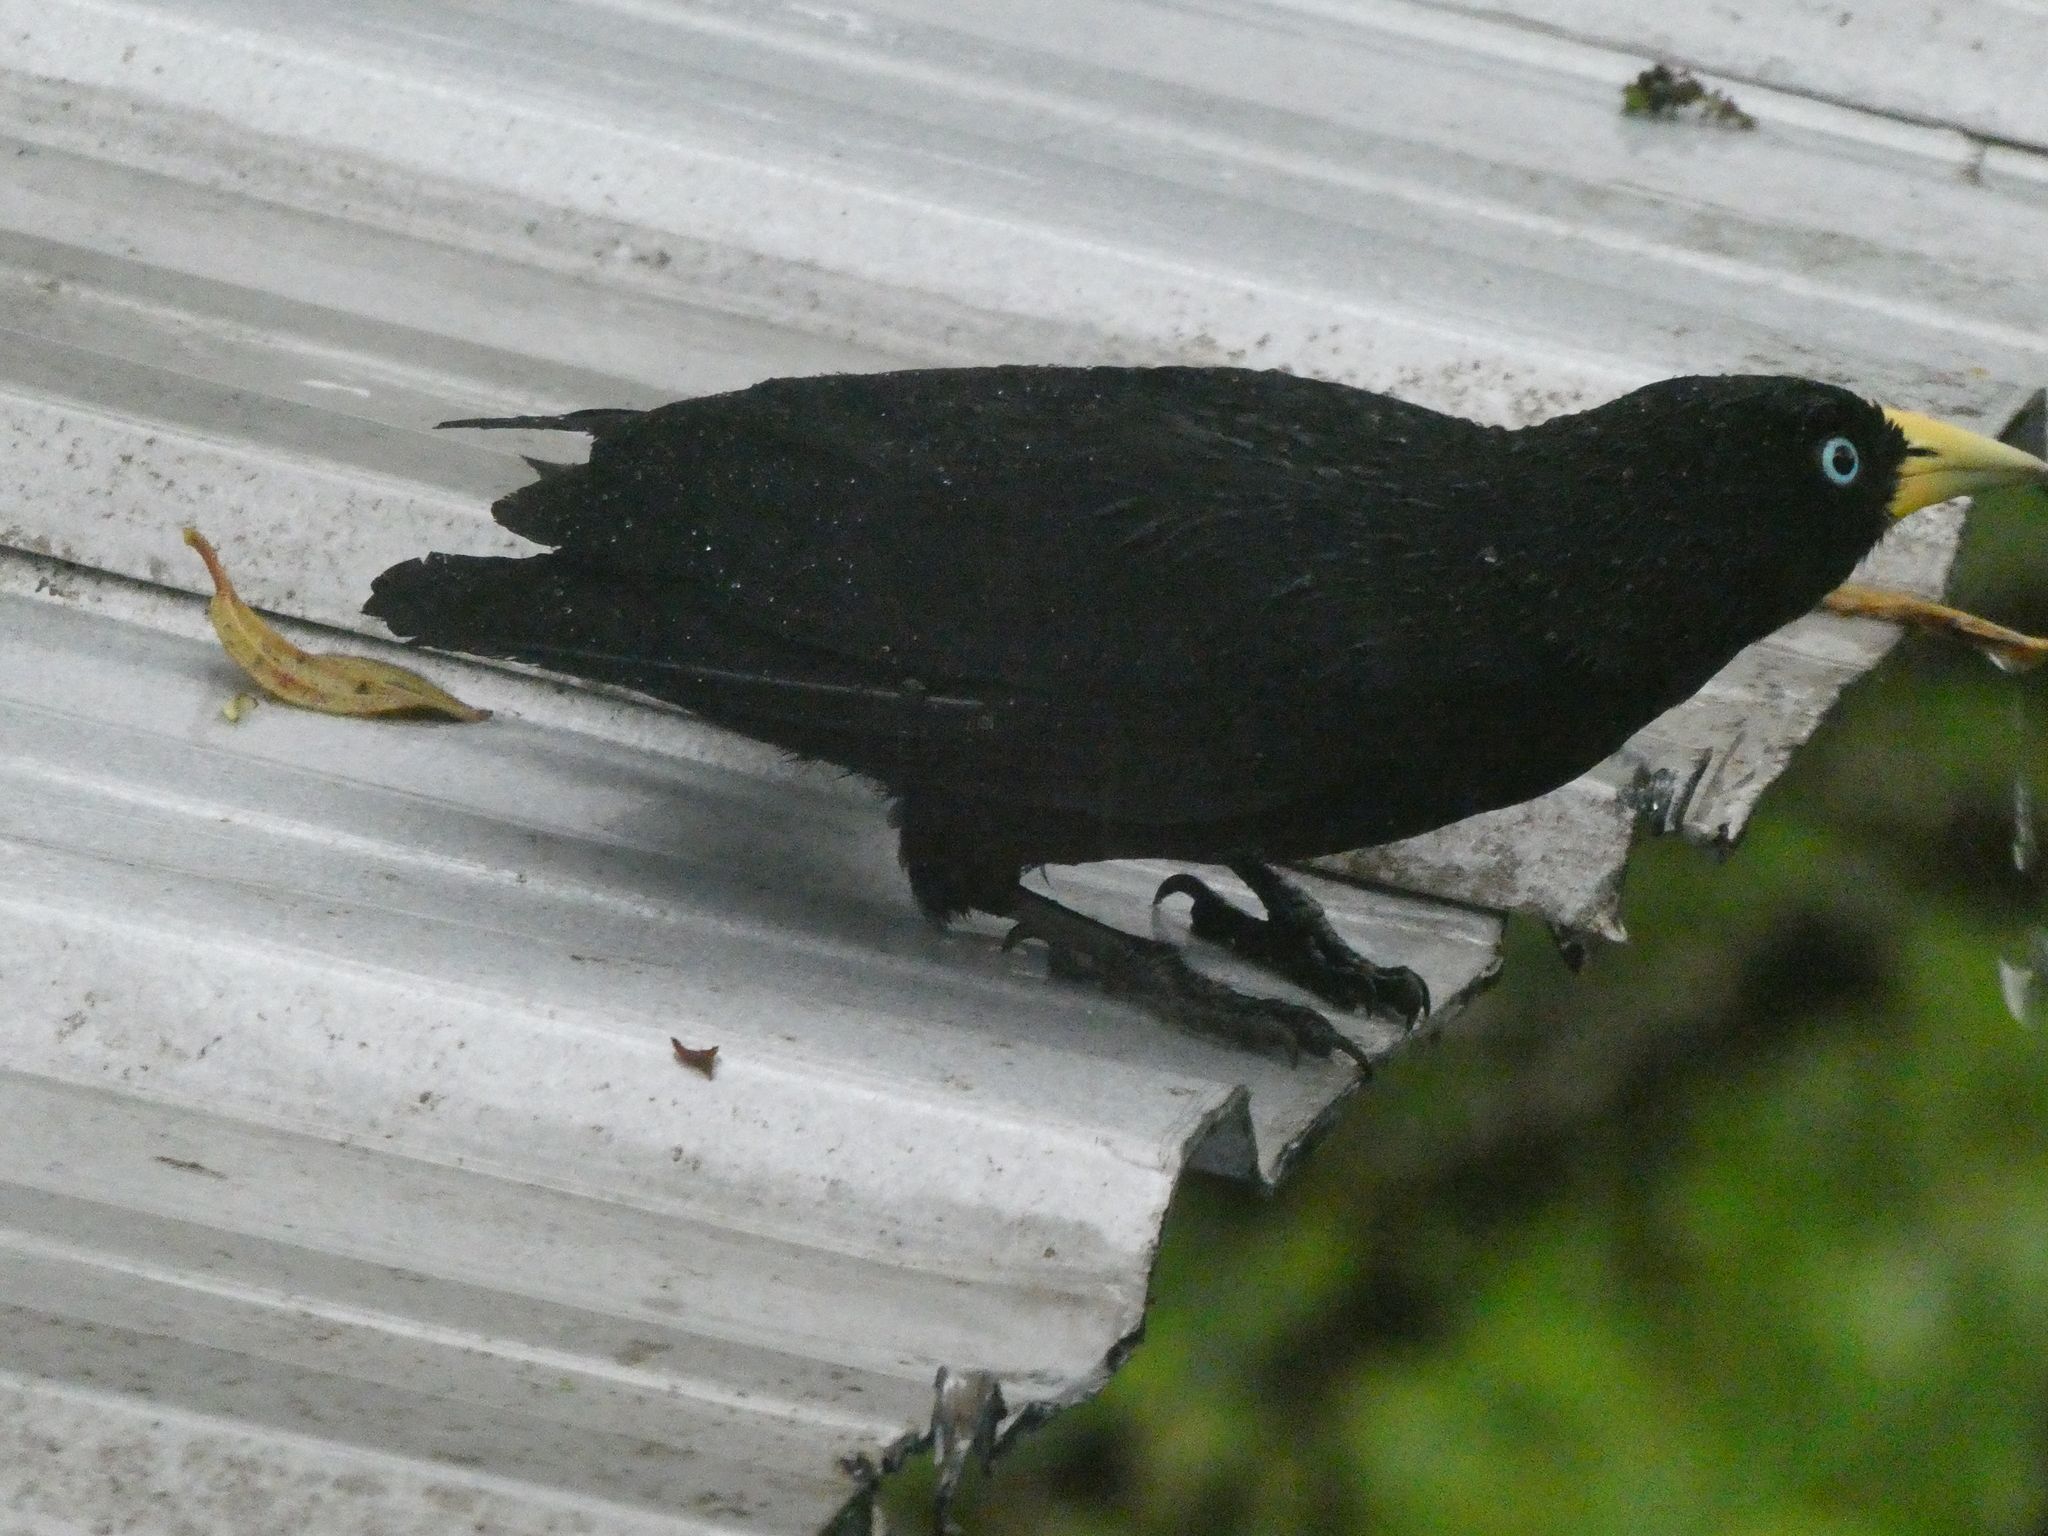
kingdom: Animalia
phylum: Chordata
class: Aves
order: Passeriformes
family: Icteridae
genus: Cacicus
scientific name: Cacicus uropygialis
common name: Scarlet-rumped cacique
